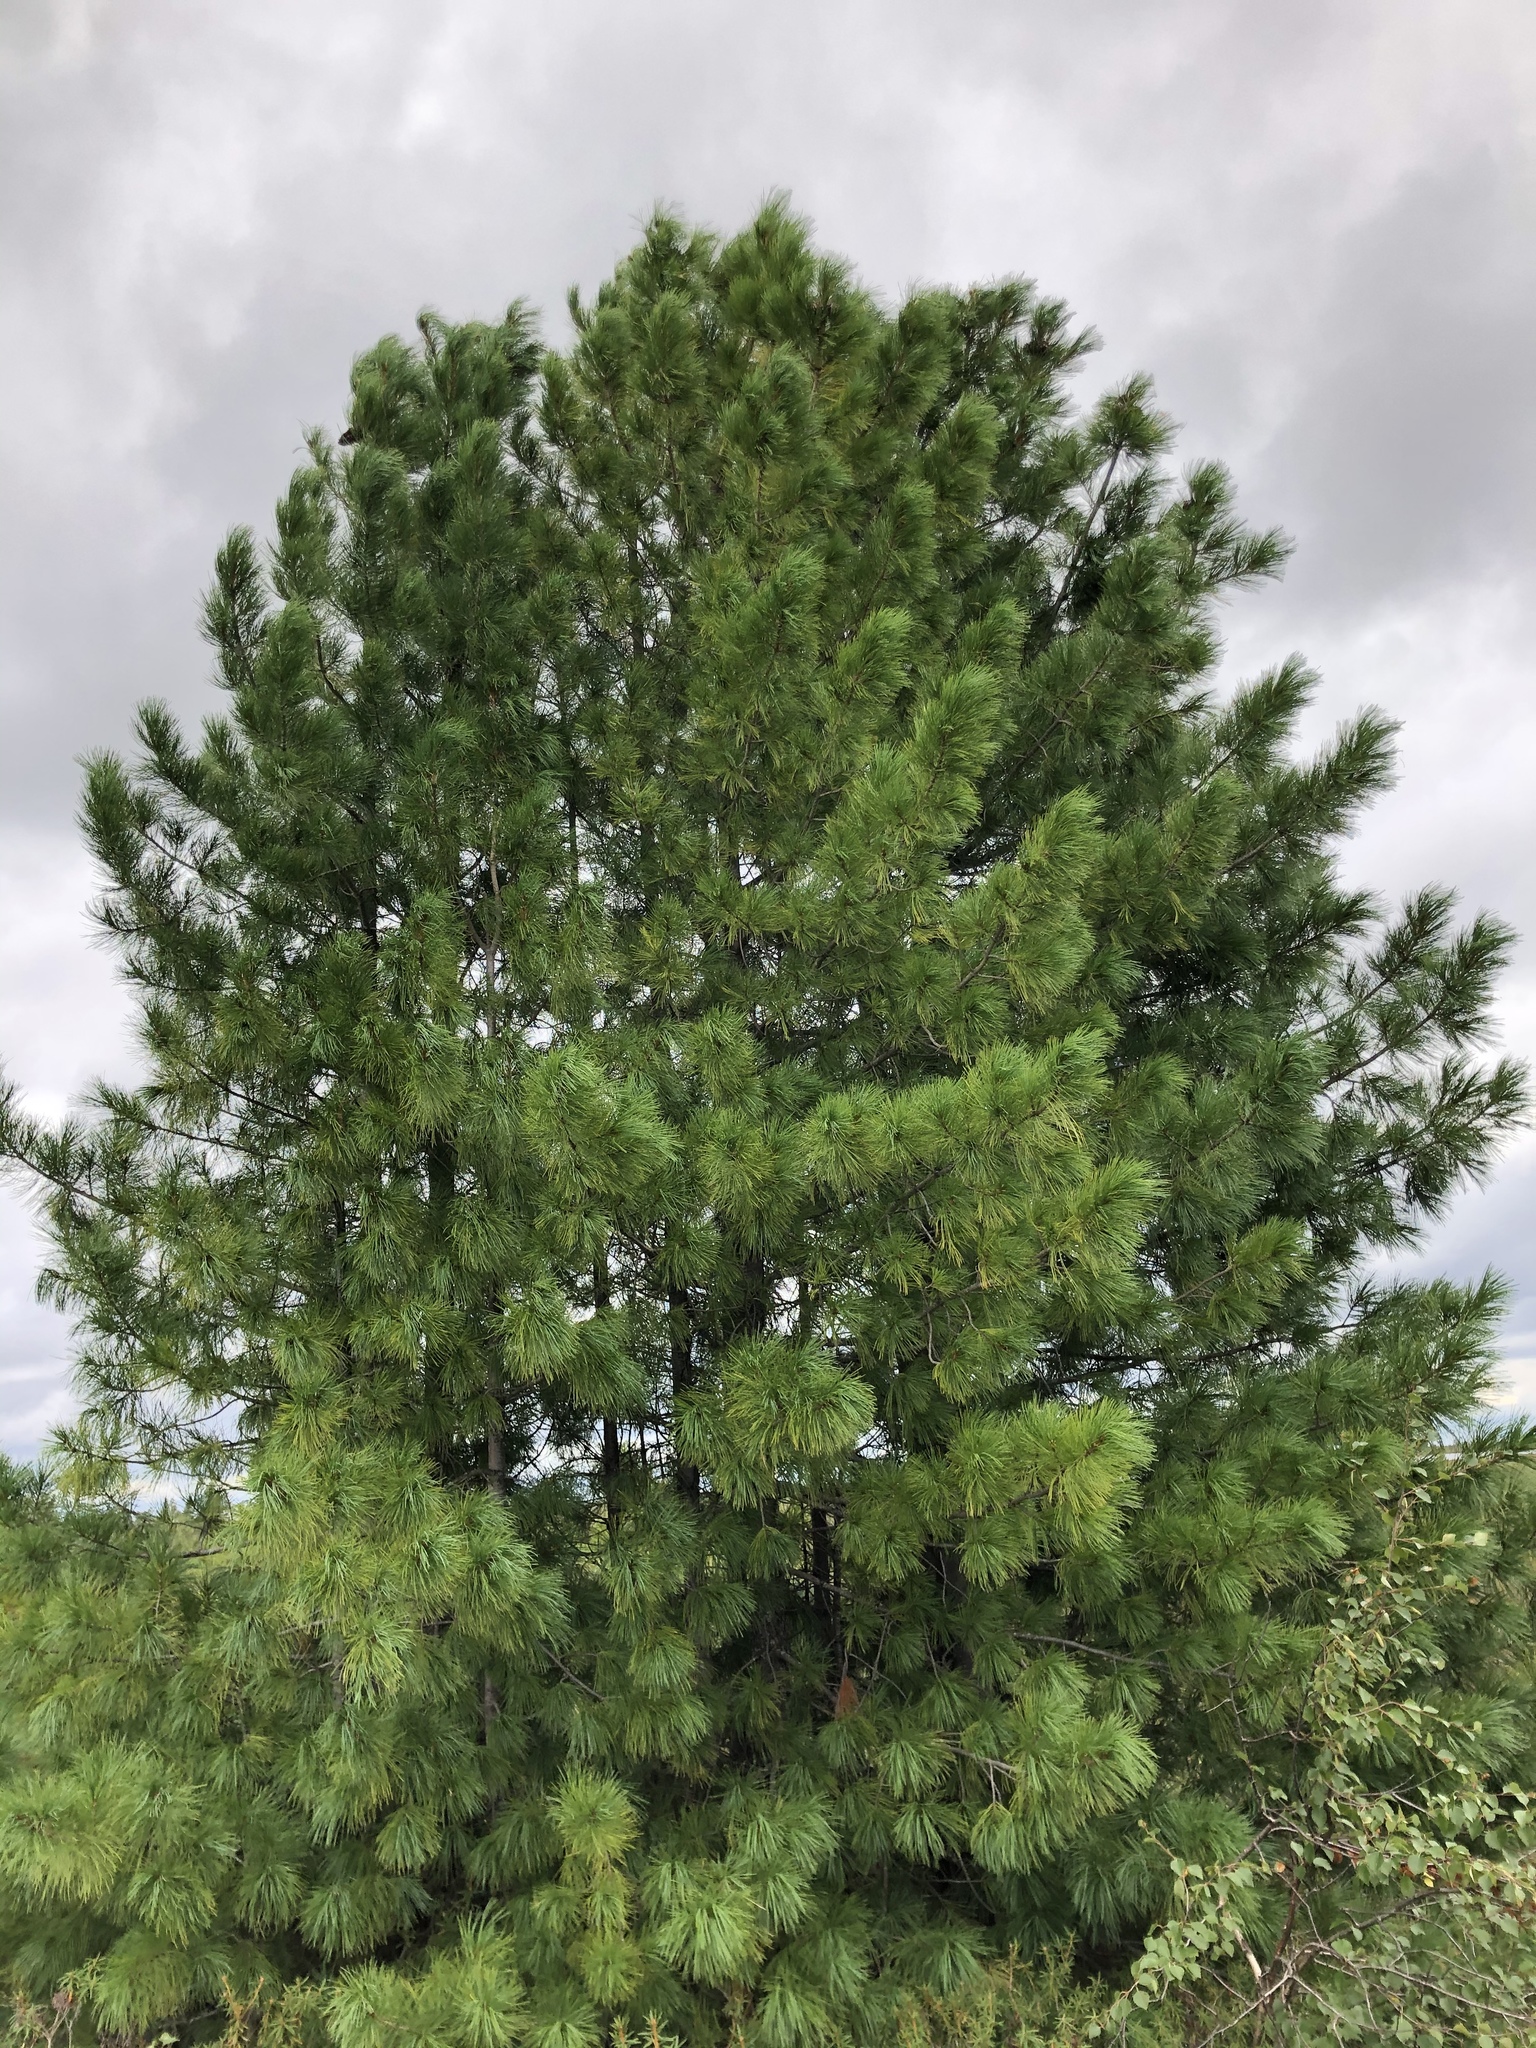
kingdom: Plantae
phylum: Tracheophyta
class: Pinopsida
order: Pinales
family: Pinaceae
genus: Pinus
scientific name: Pinus sibirica
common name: Siberian pine
